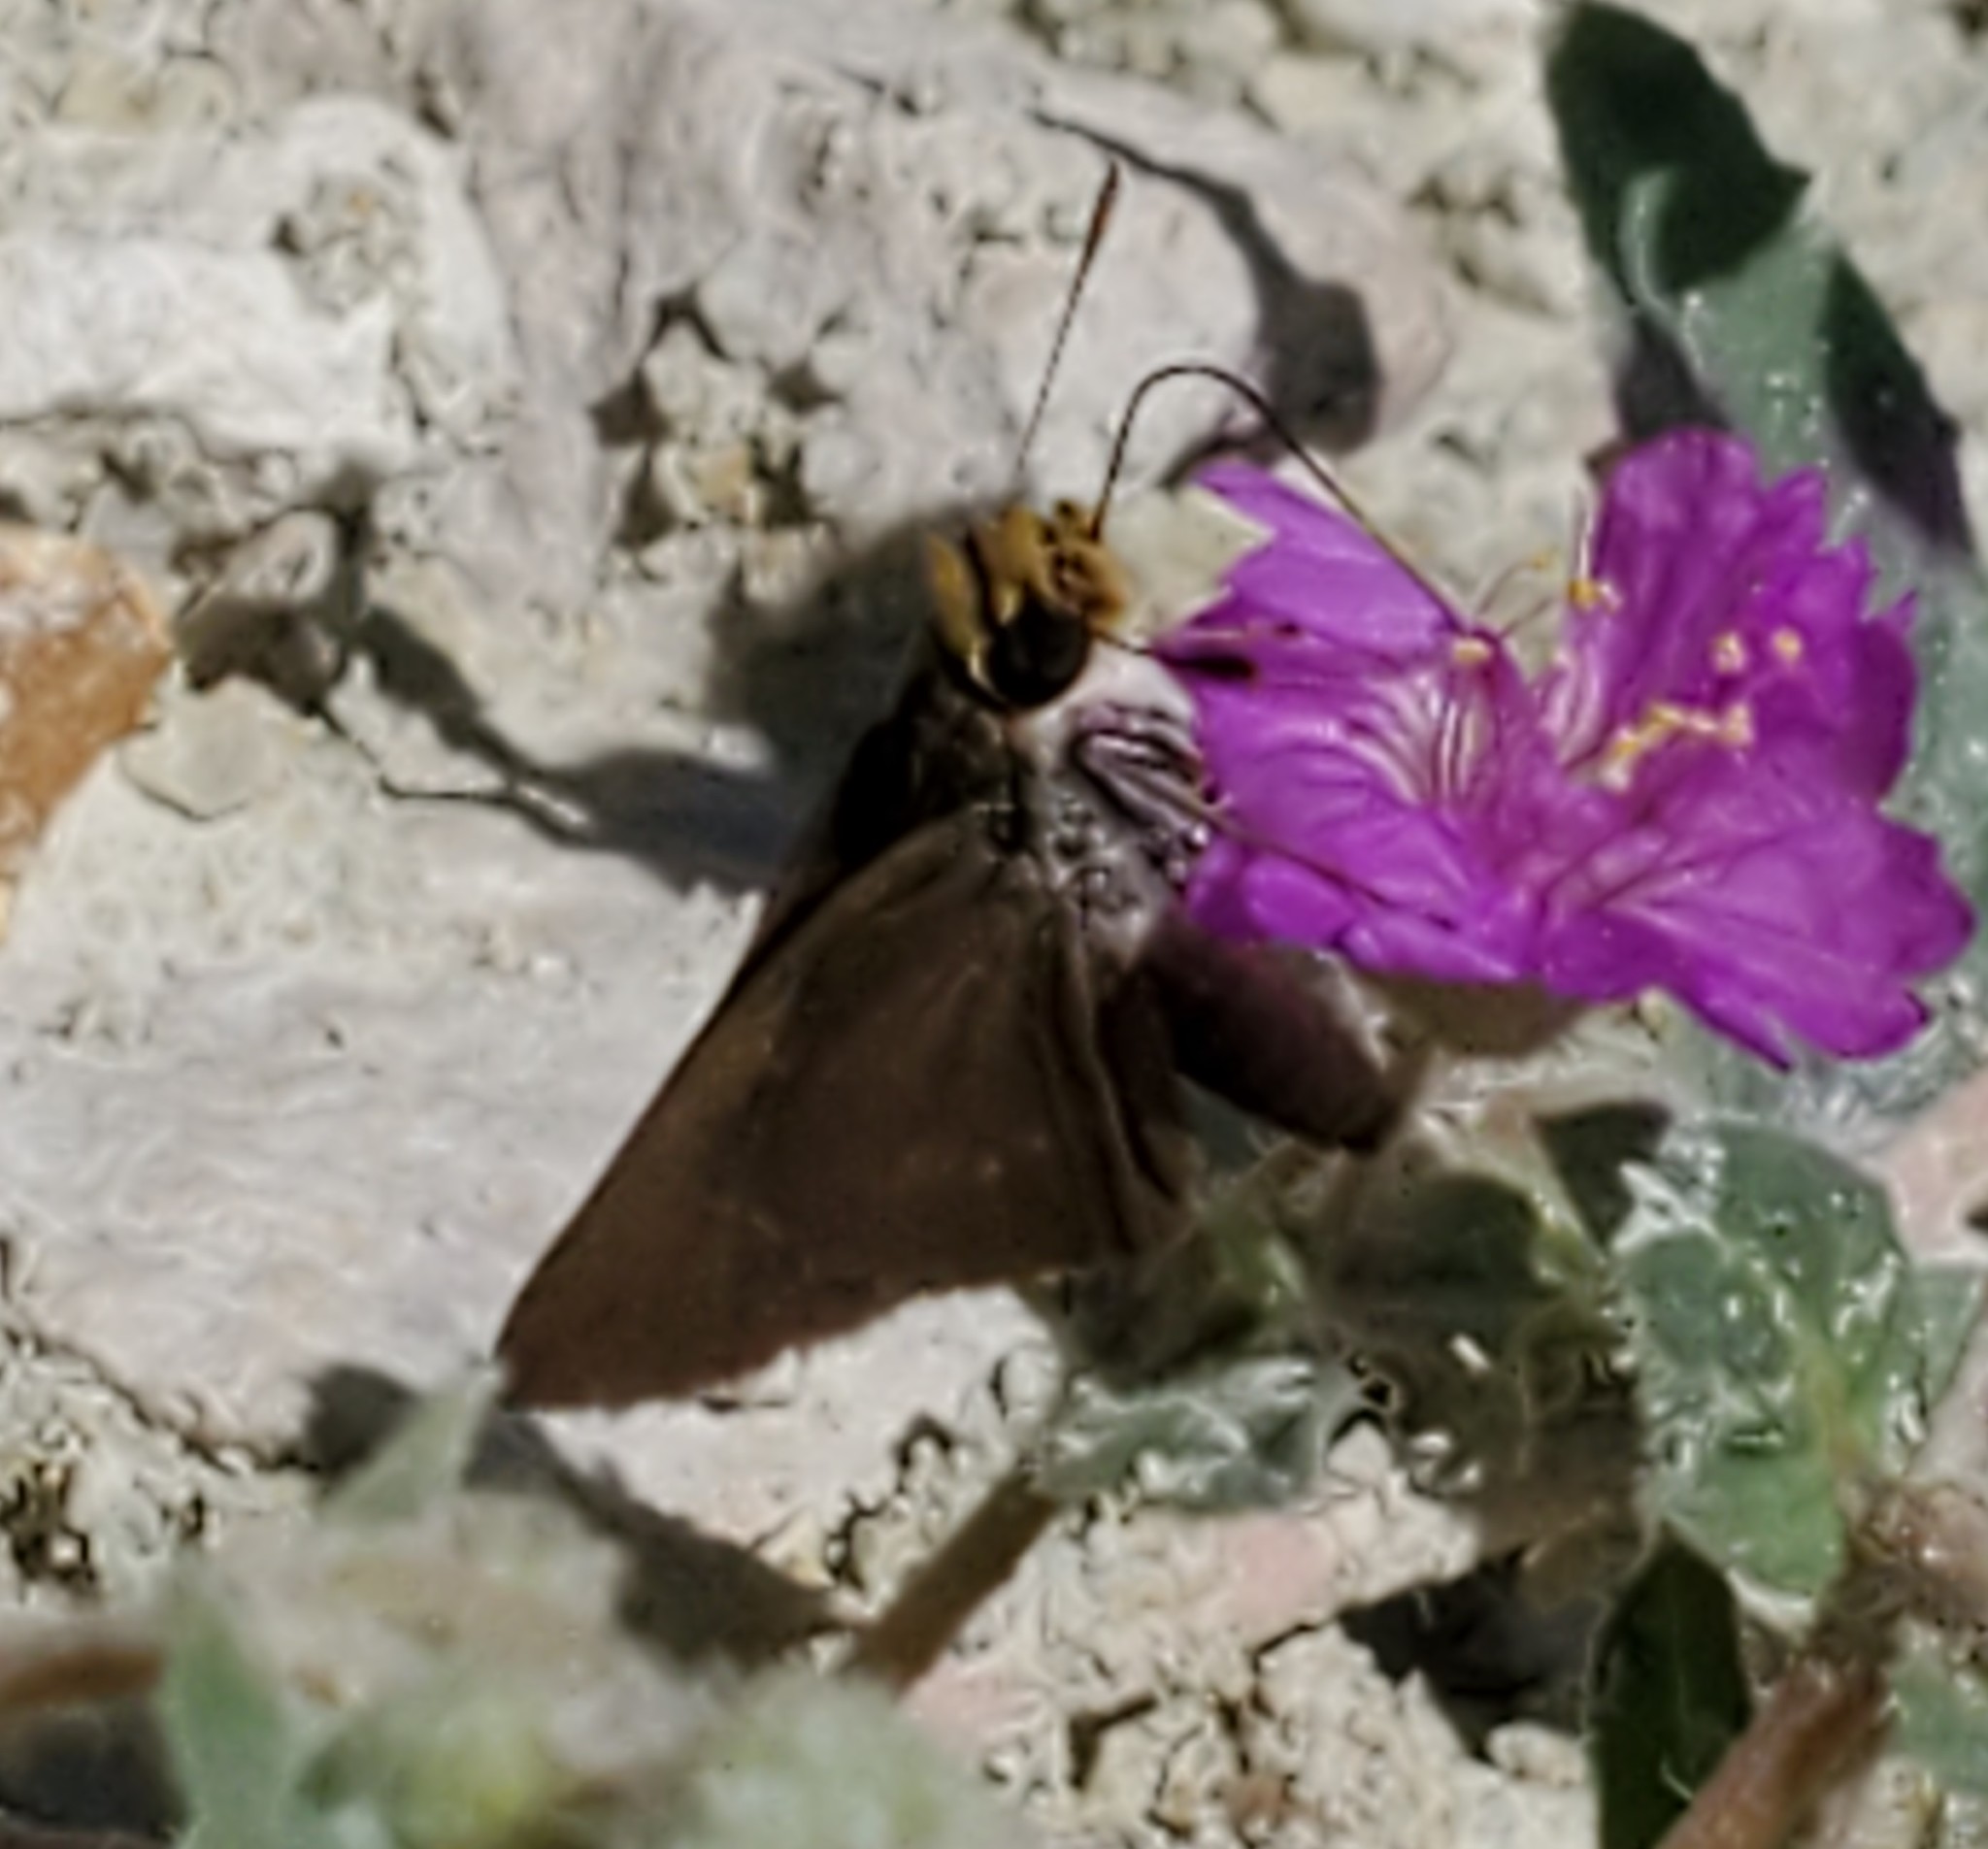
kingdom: Animalia
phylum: Arthropoda
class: Insecta
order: Lepidoptera
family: Hesperiidae
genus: Euphyes
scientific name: Euphyes vestris
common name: Dun skipper
